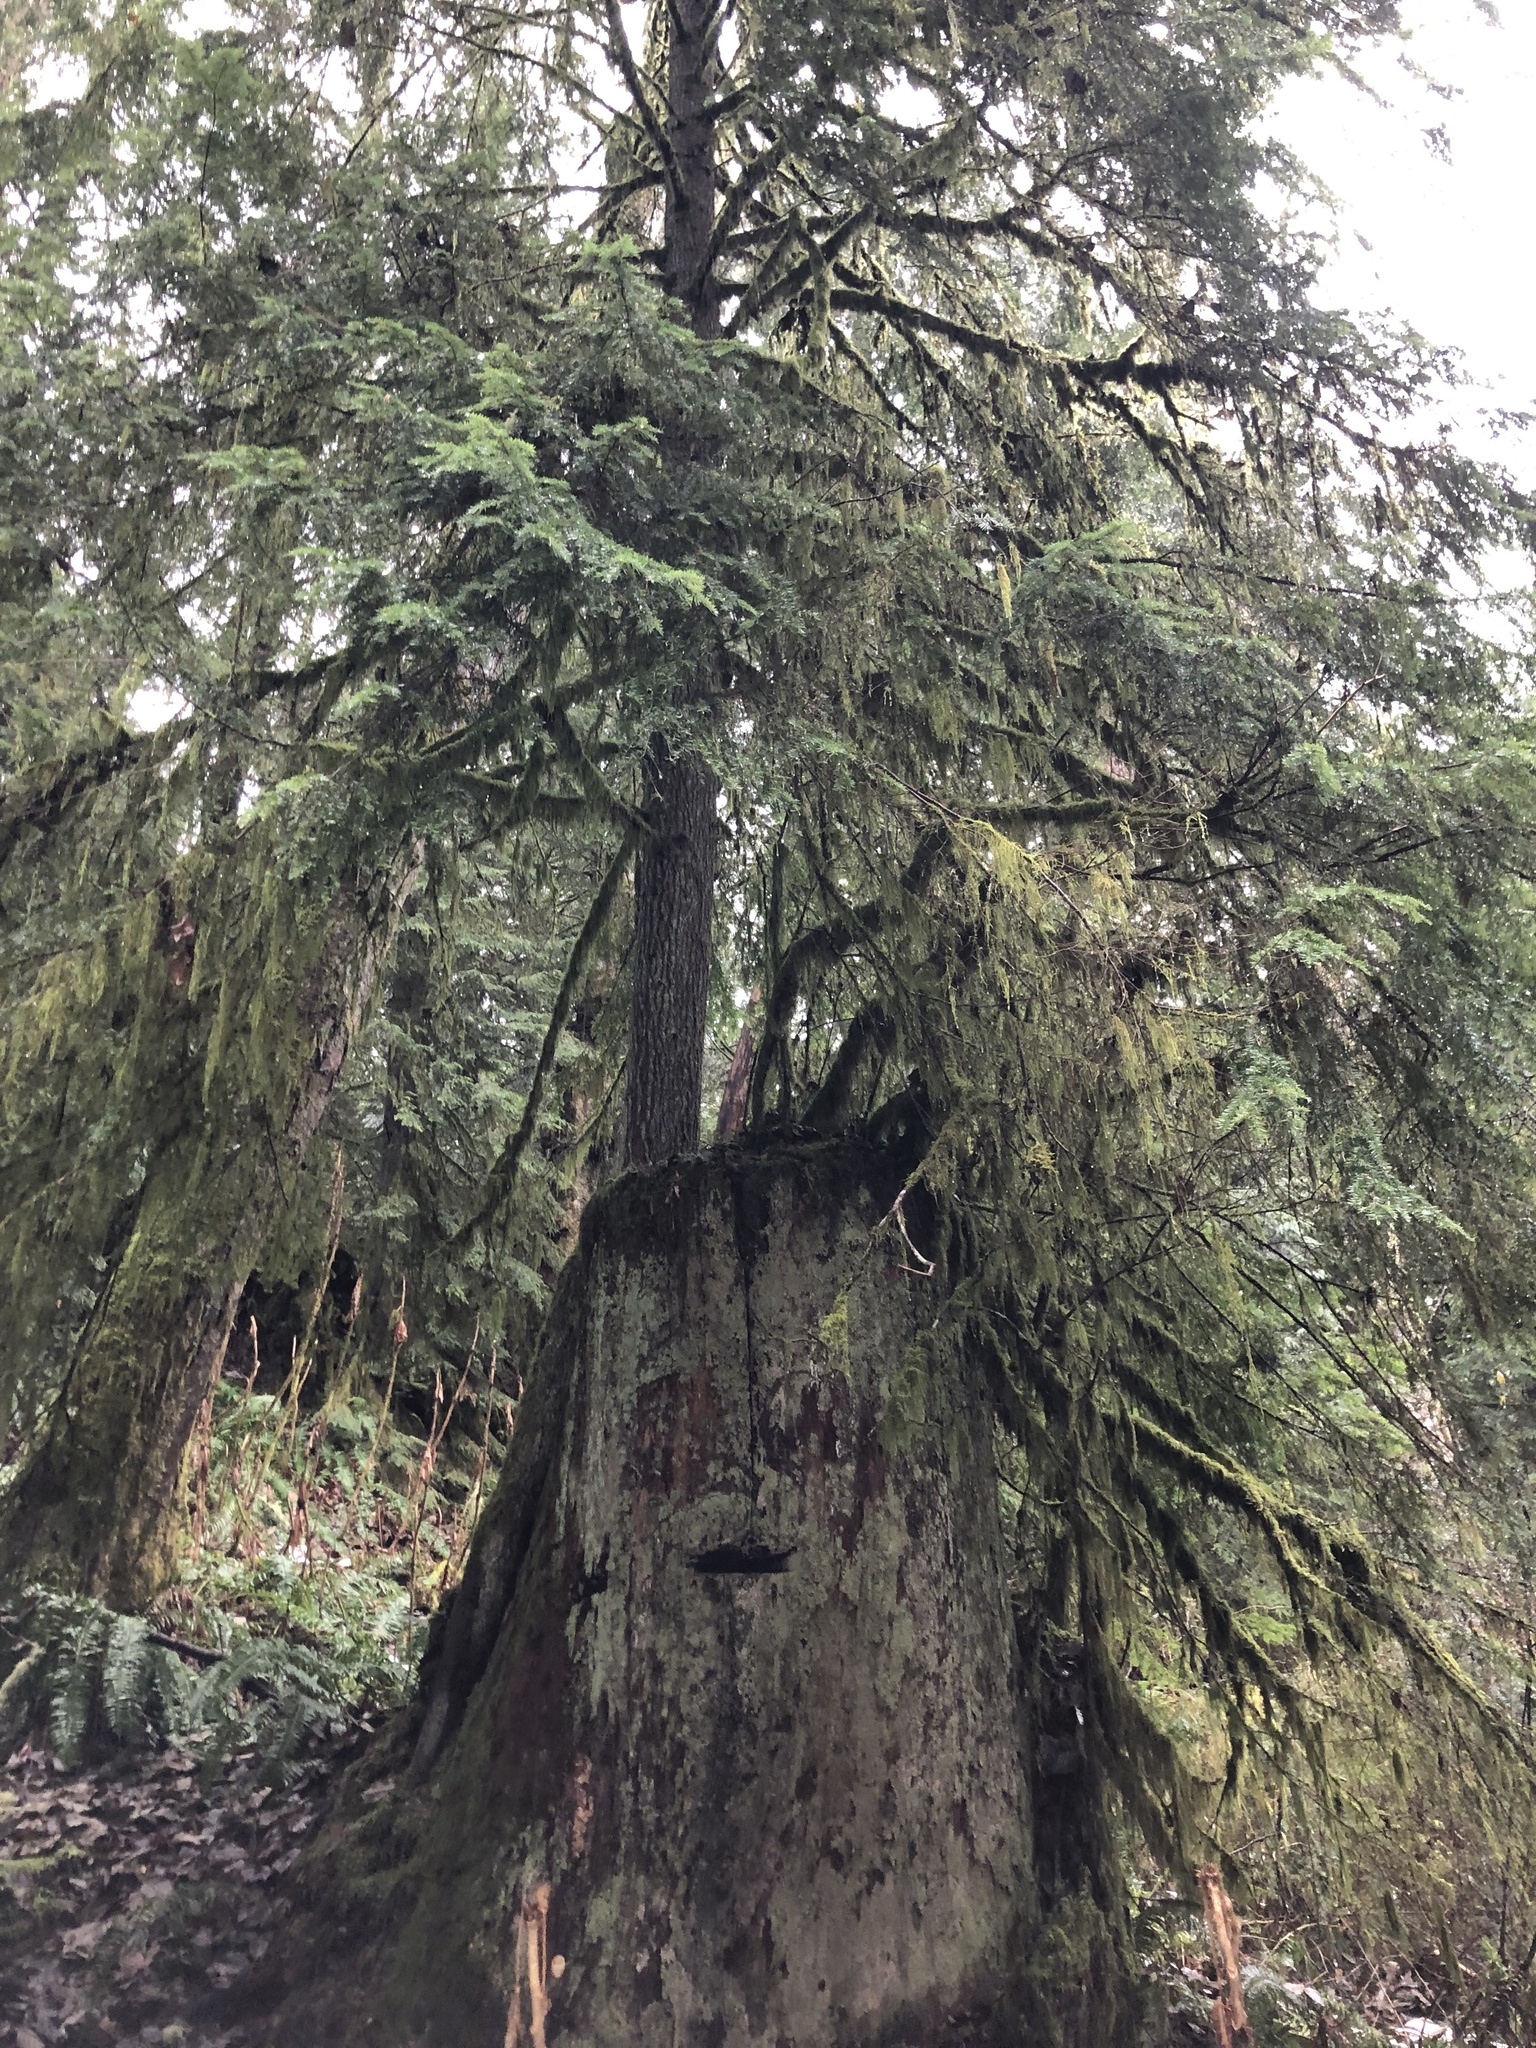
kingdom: Plantae
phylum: Tracheophyta
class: Pinopsida
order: Pinales
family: Pinaceae
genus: Tsuga
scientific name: Tsuga heterophylla
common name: Western hemlock
